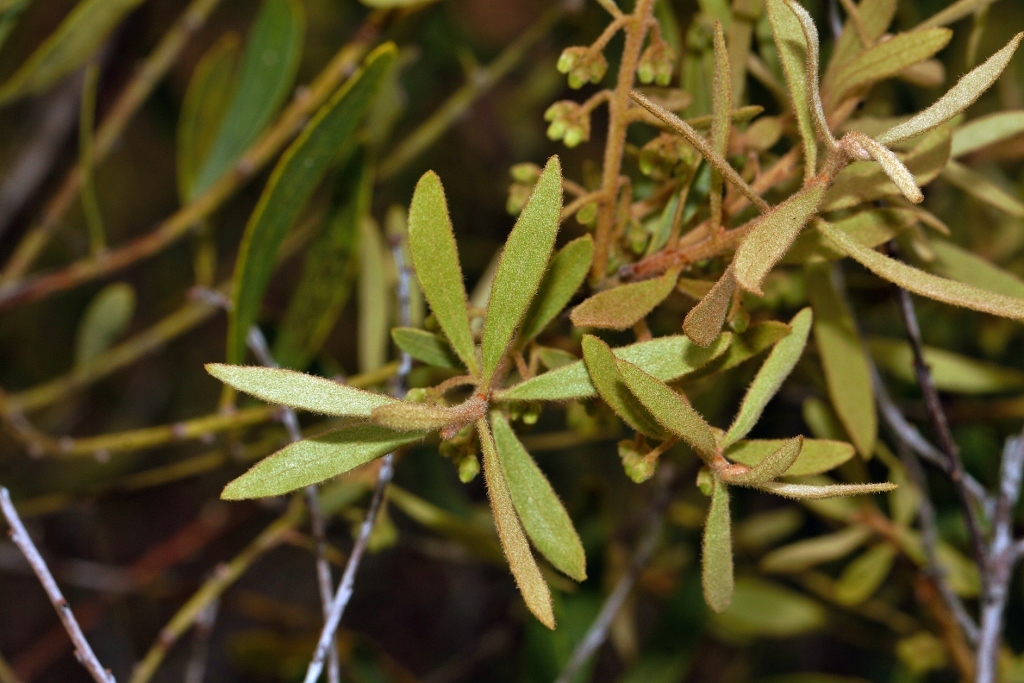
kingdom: Plantae
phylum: Tracheophyta
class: Magnoliopsida
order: Ericales
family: Ebenaceae
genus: Euclea
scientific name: Euclea crispa
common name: Blue guarri
